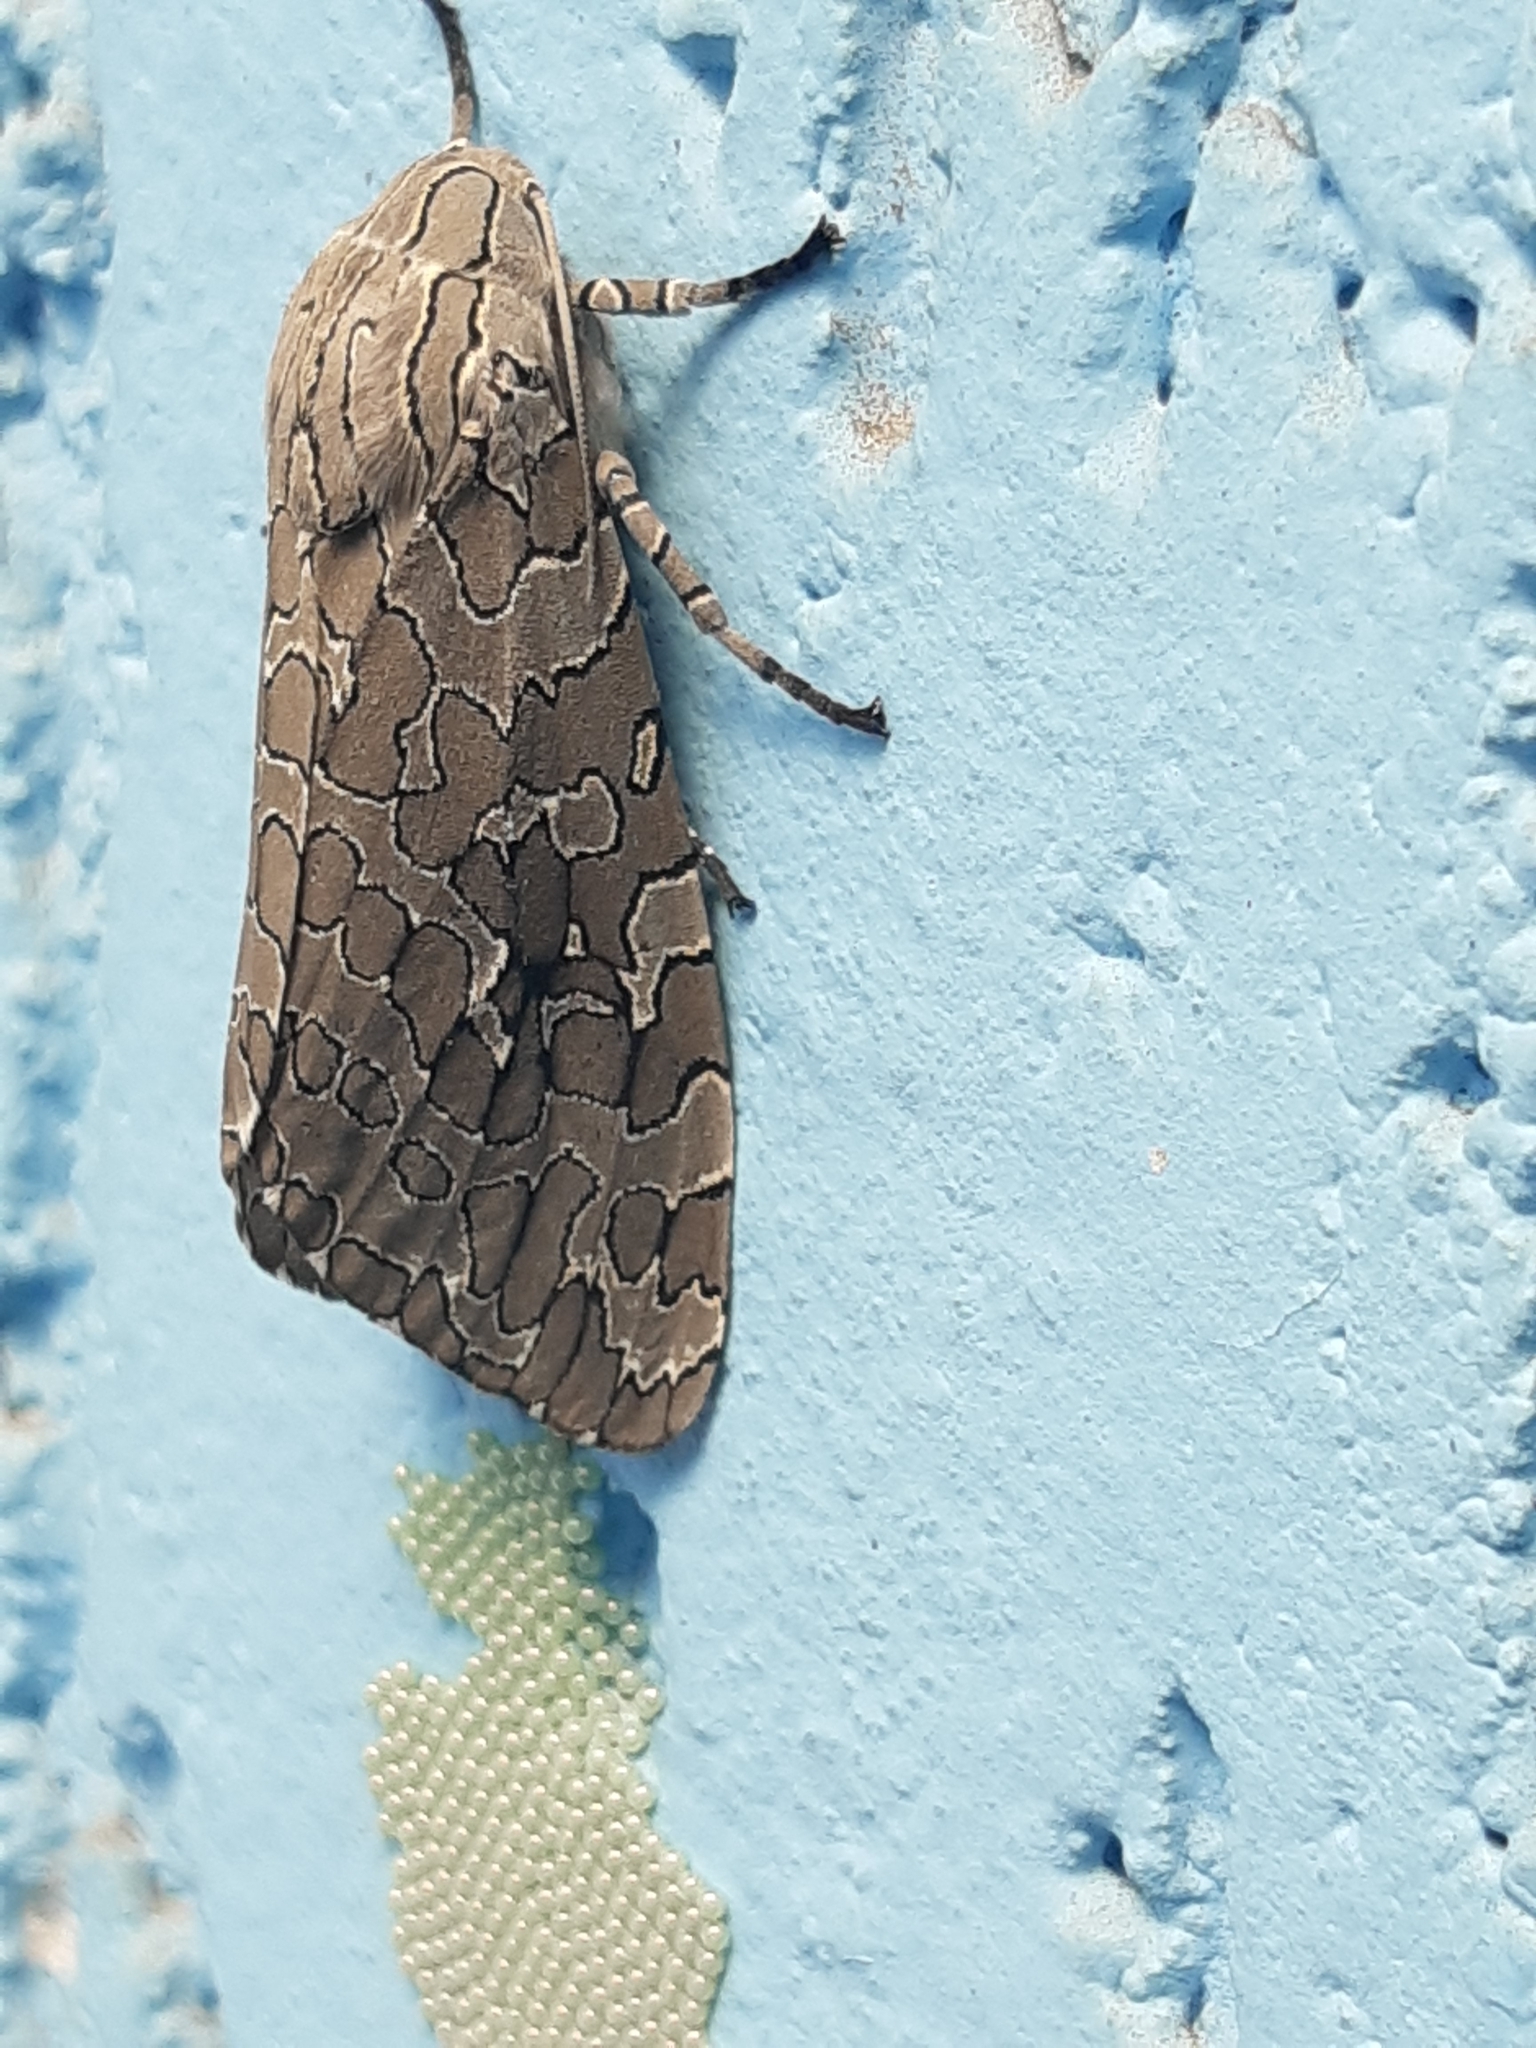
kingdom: Animalia
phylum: Arthropoda
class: Insecta
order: Lepidoptera
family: Erebidae
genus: Hypercompe
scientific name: Hypercompe indecisa
